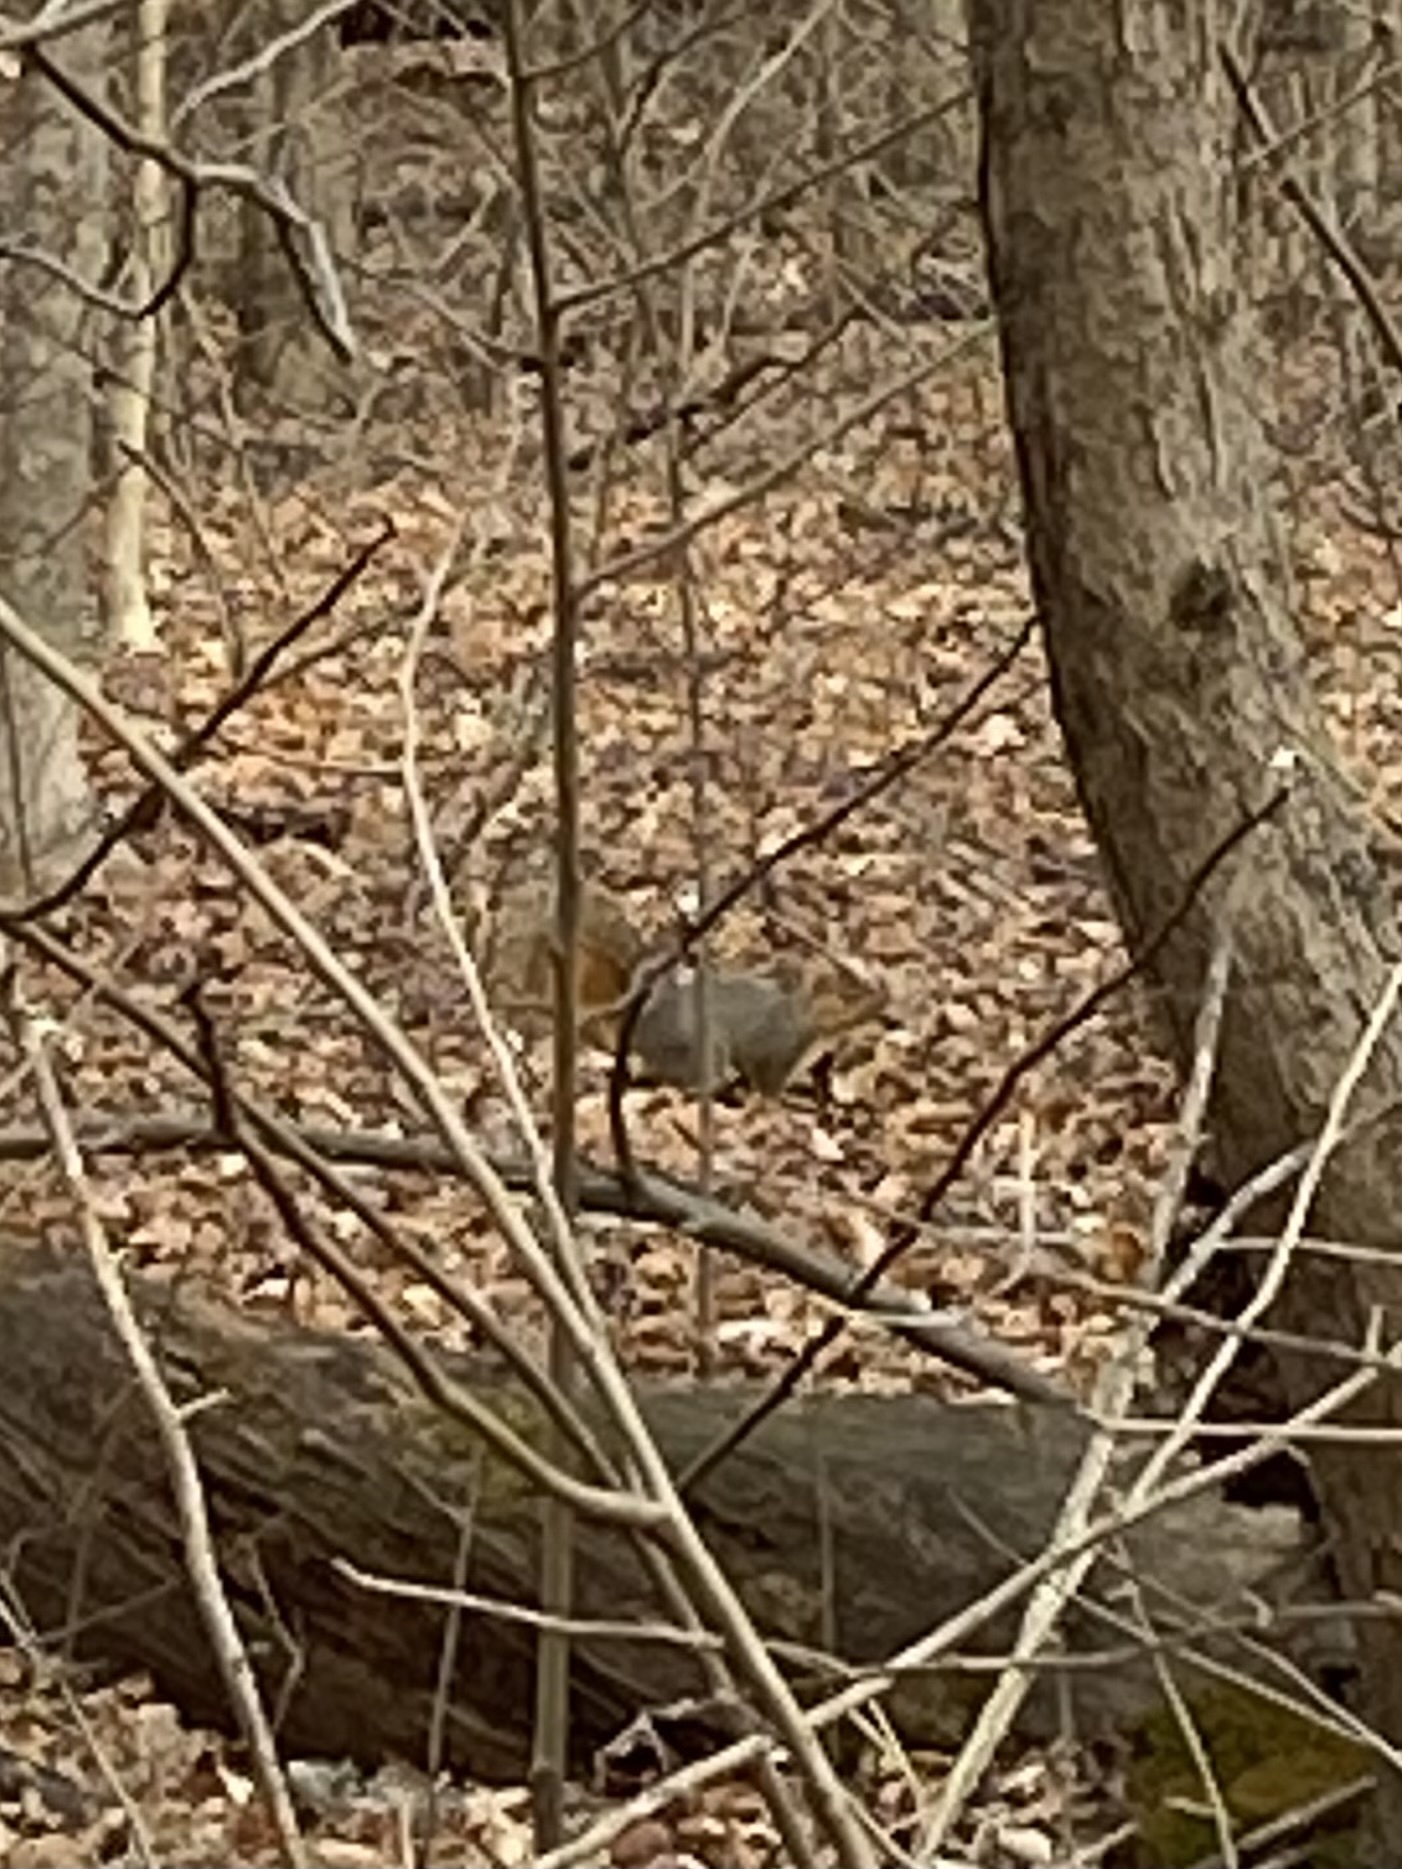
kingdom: Animalia
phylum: Chordata
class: Mammalia
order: Rodentia
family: Sciuridae
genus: Sciurus
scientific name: Sciurus niger
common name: Fox squirrel
